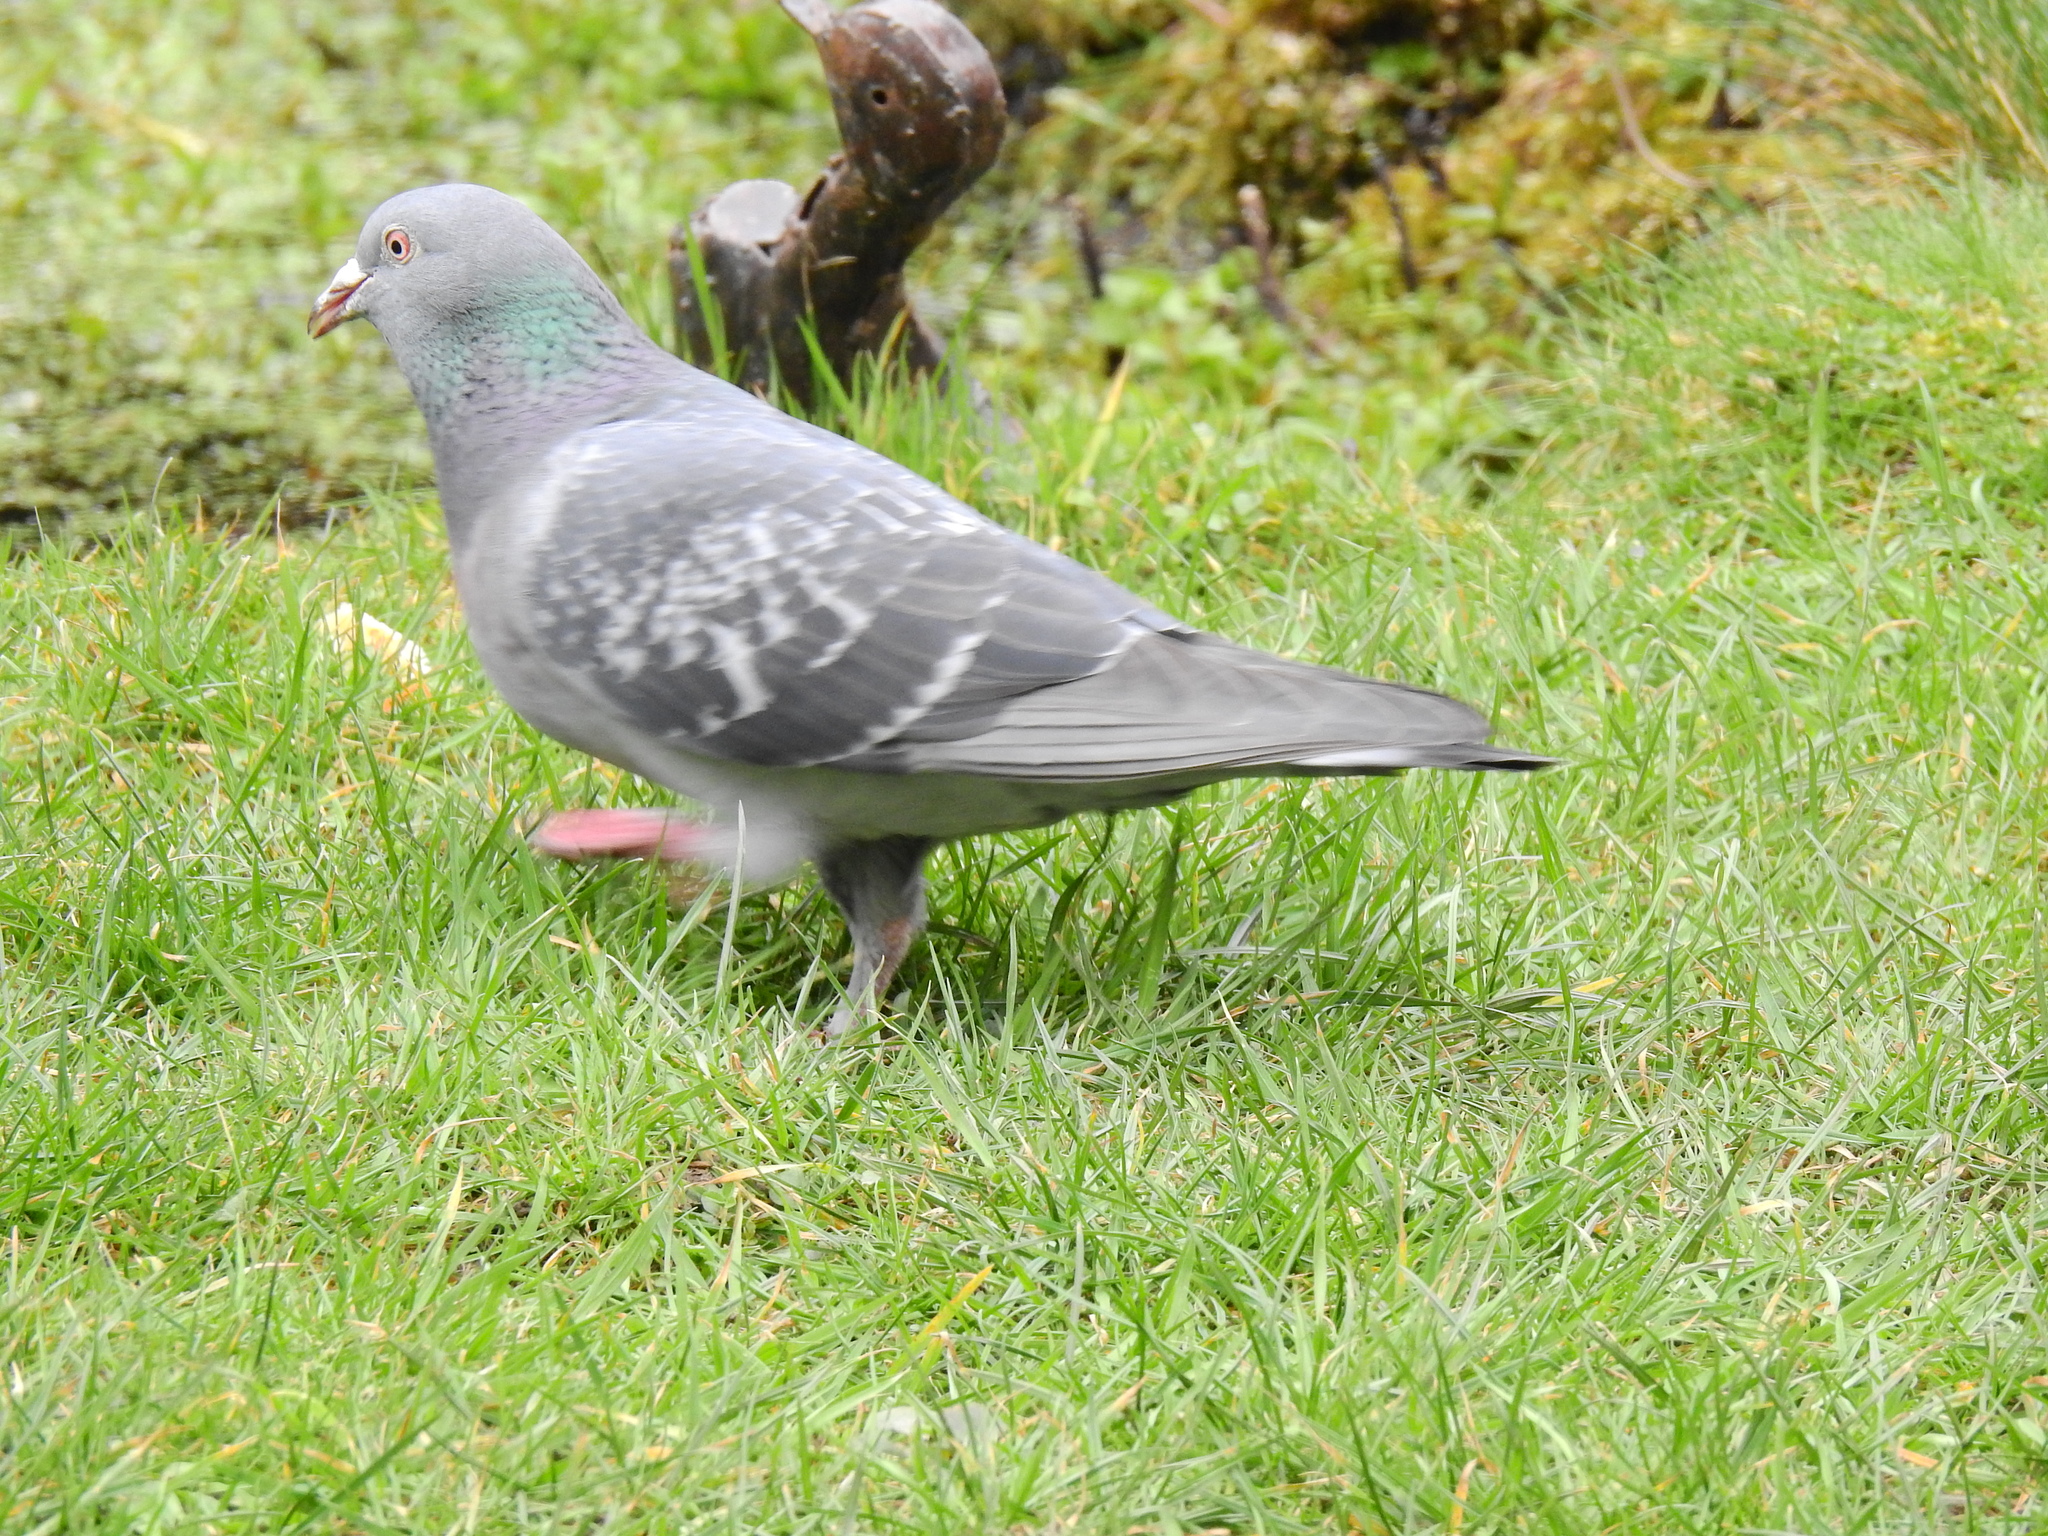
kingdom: Animalia
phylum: Chordata
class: Aves
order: Columbiformes
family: Columbidae
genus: Columba
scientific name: Columba livia
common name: Rock pigeon
